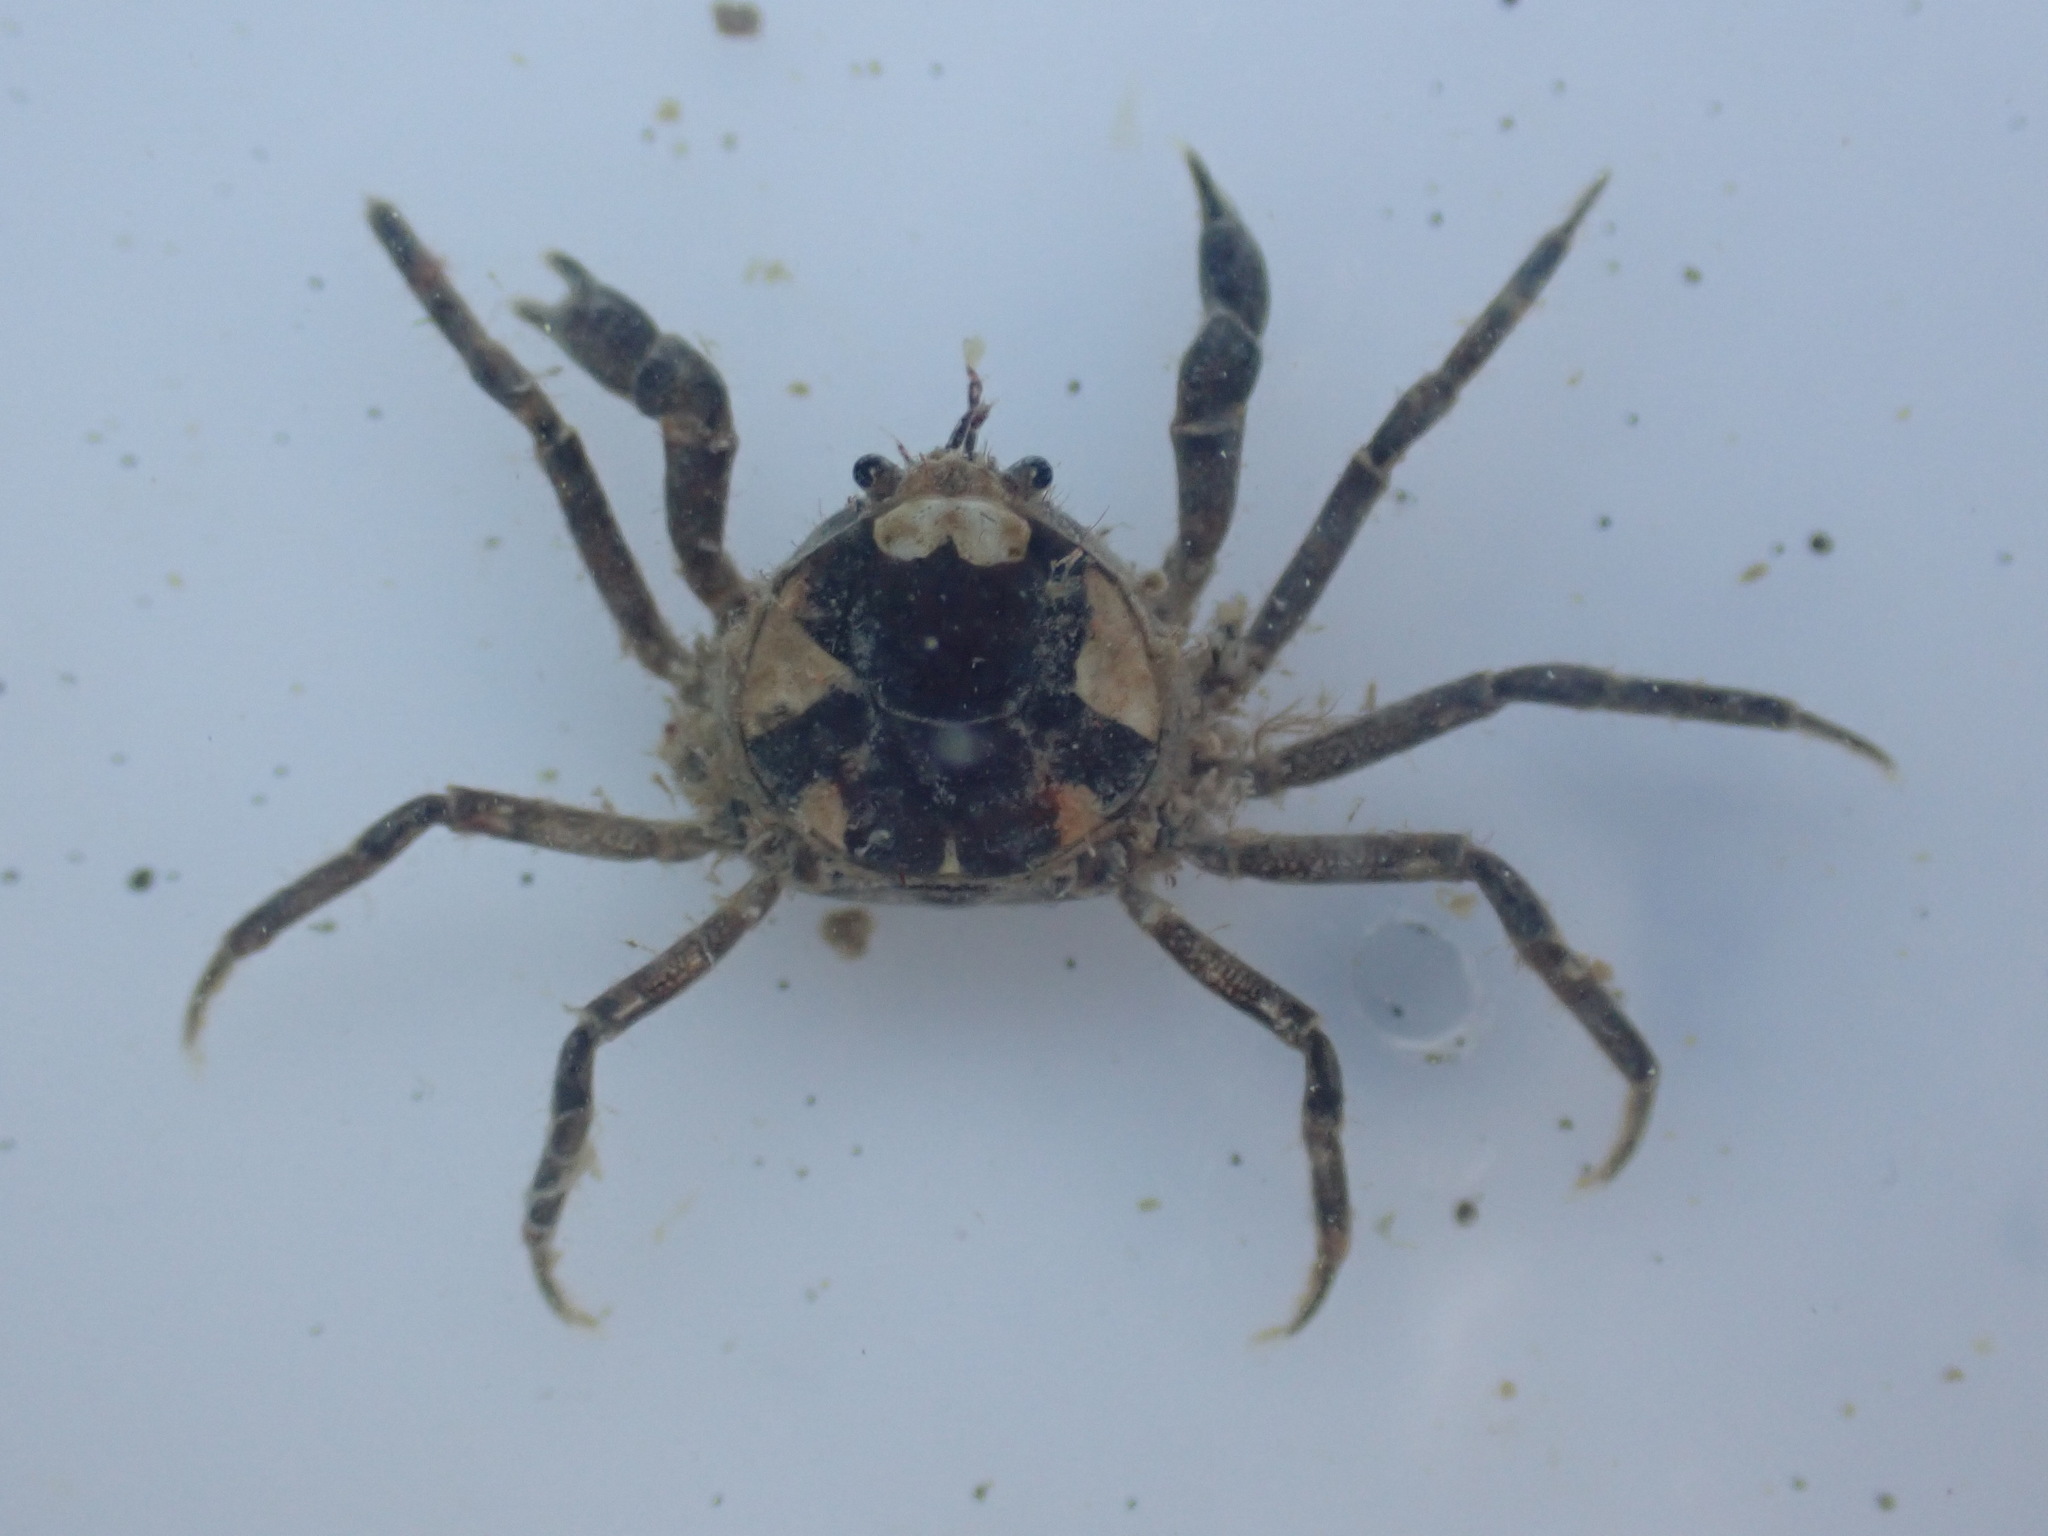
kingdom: Animalia
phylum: Arthropoda
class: Malacostraca
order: Decapoda
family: Hymenosomatidae
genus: Halicarcinus
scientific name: Halicarcinus quoyi
